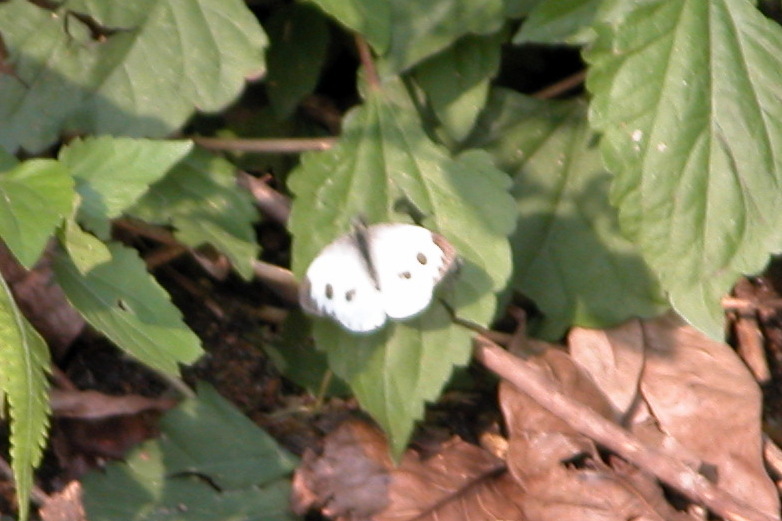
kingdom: Animalia
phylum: Arthropoda
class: Insecta
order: Lepidoptera
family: Pieridae
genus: Pieris
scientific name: Pieris canidia
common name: Indian cabbage white
